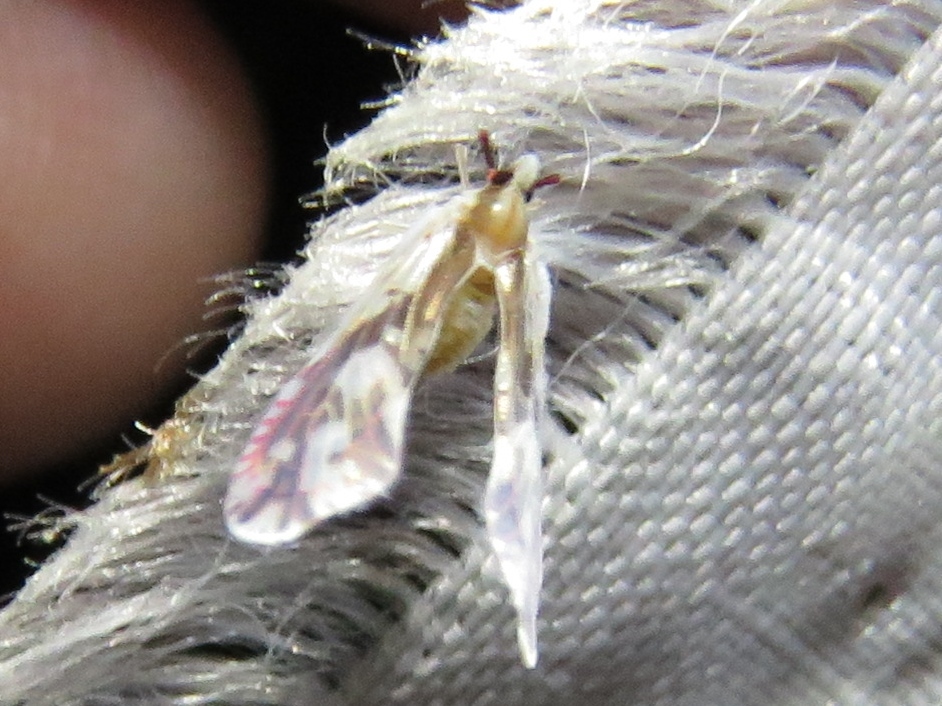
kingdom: Animalia
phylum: Arthropoda
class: Insecta
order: Hemiptera
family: Derbidae
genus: Anotia
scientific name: Anotia fitchi
